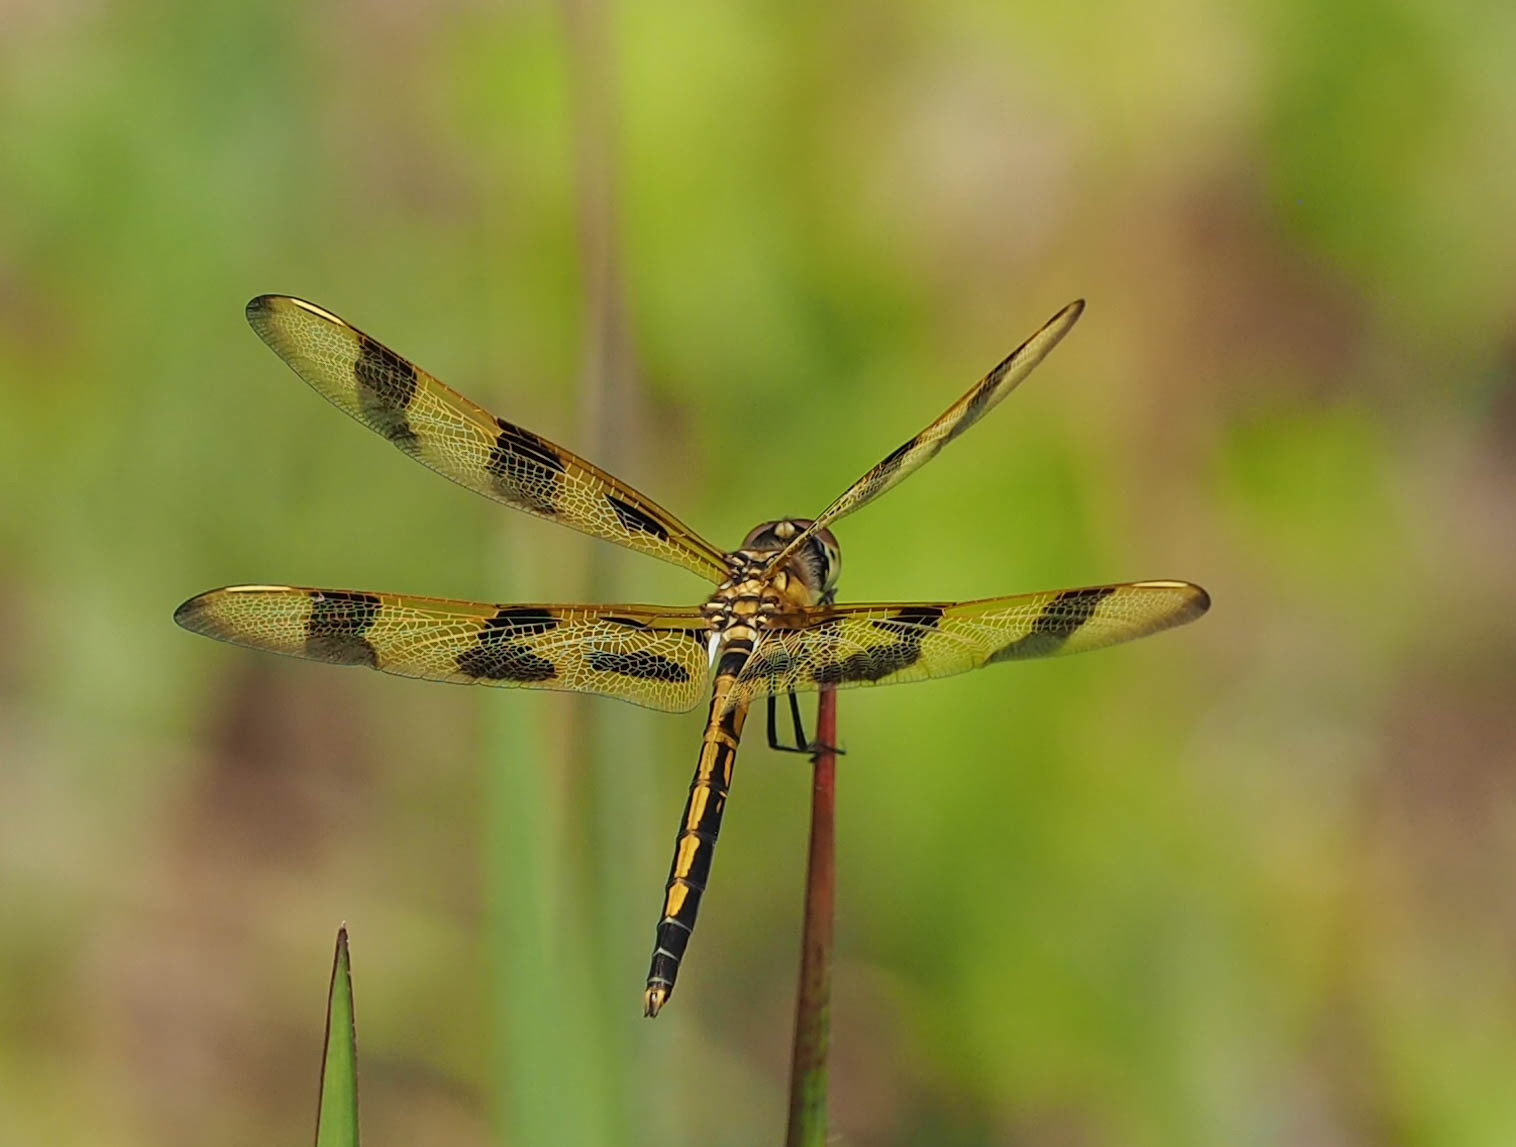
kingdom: Animalia
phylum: Arthropoda
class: Insecta
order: Odonata
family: Libellulidae
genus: Celithemis
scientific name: Celithemis eponina
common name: Halloween pennant
